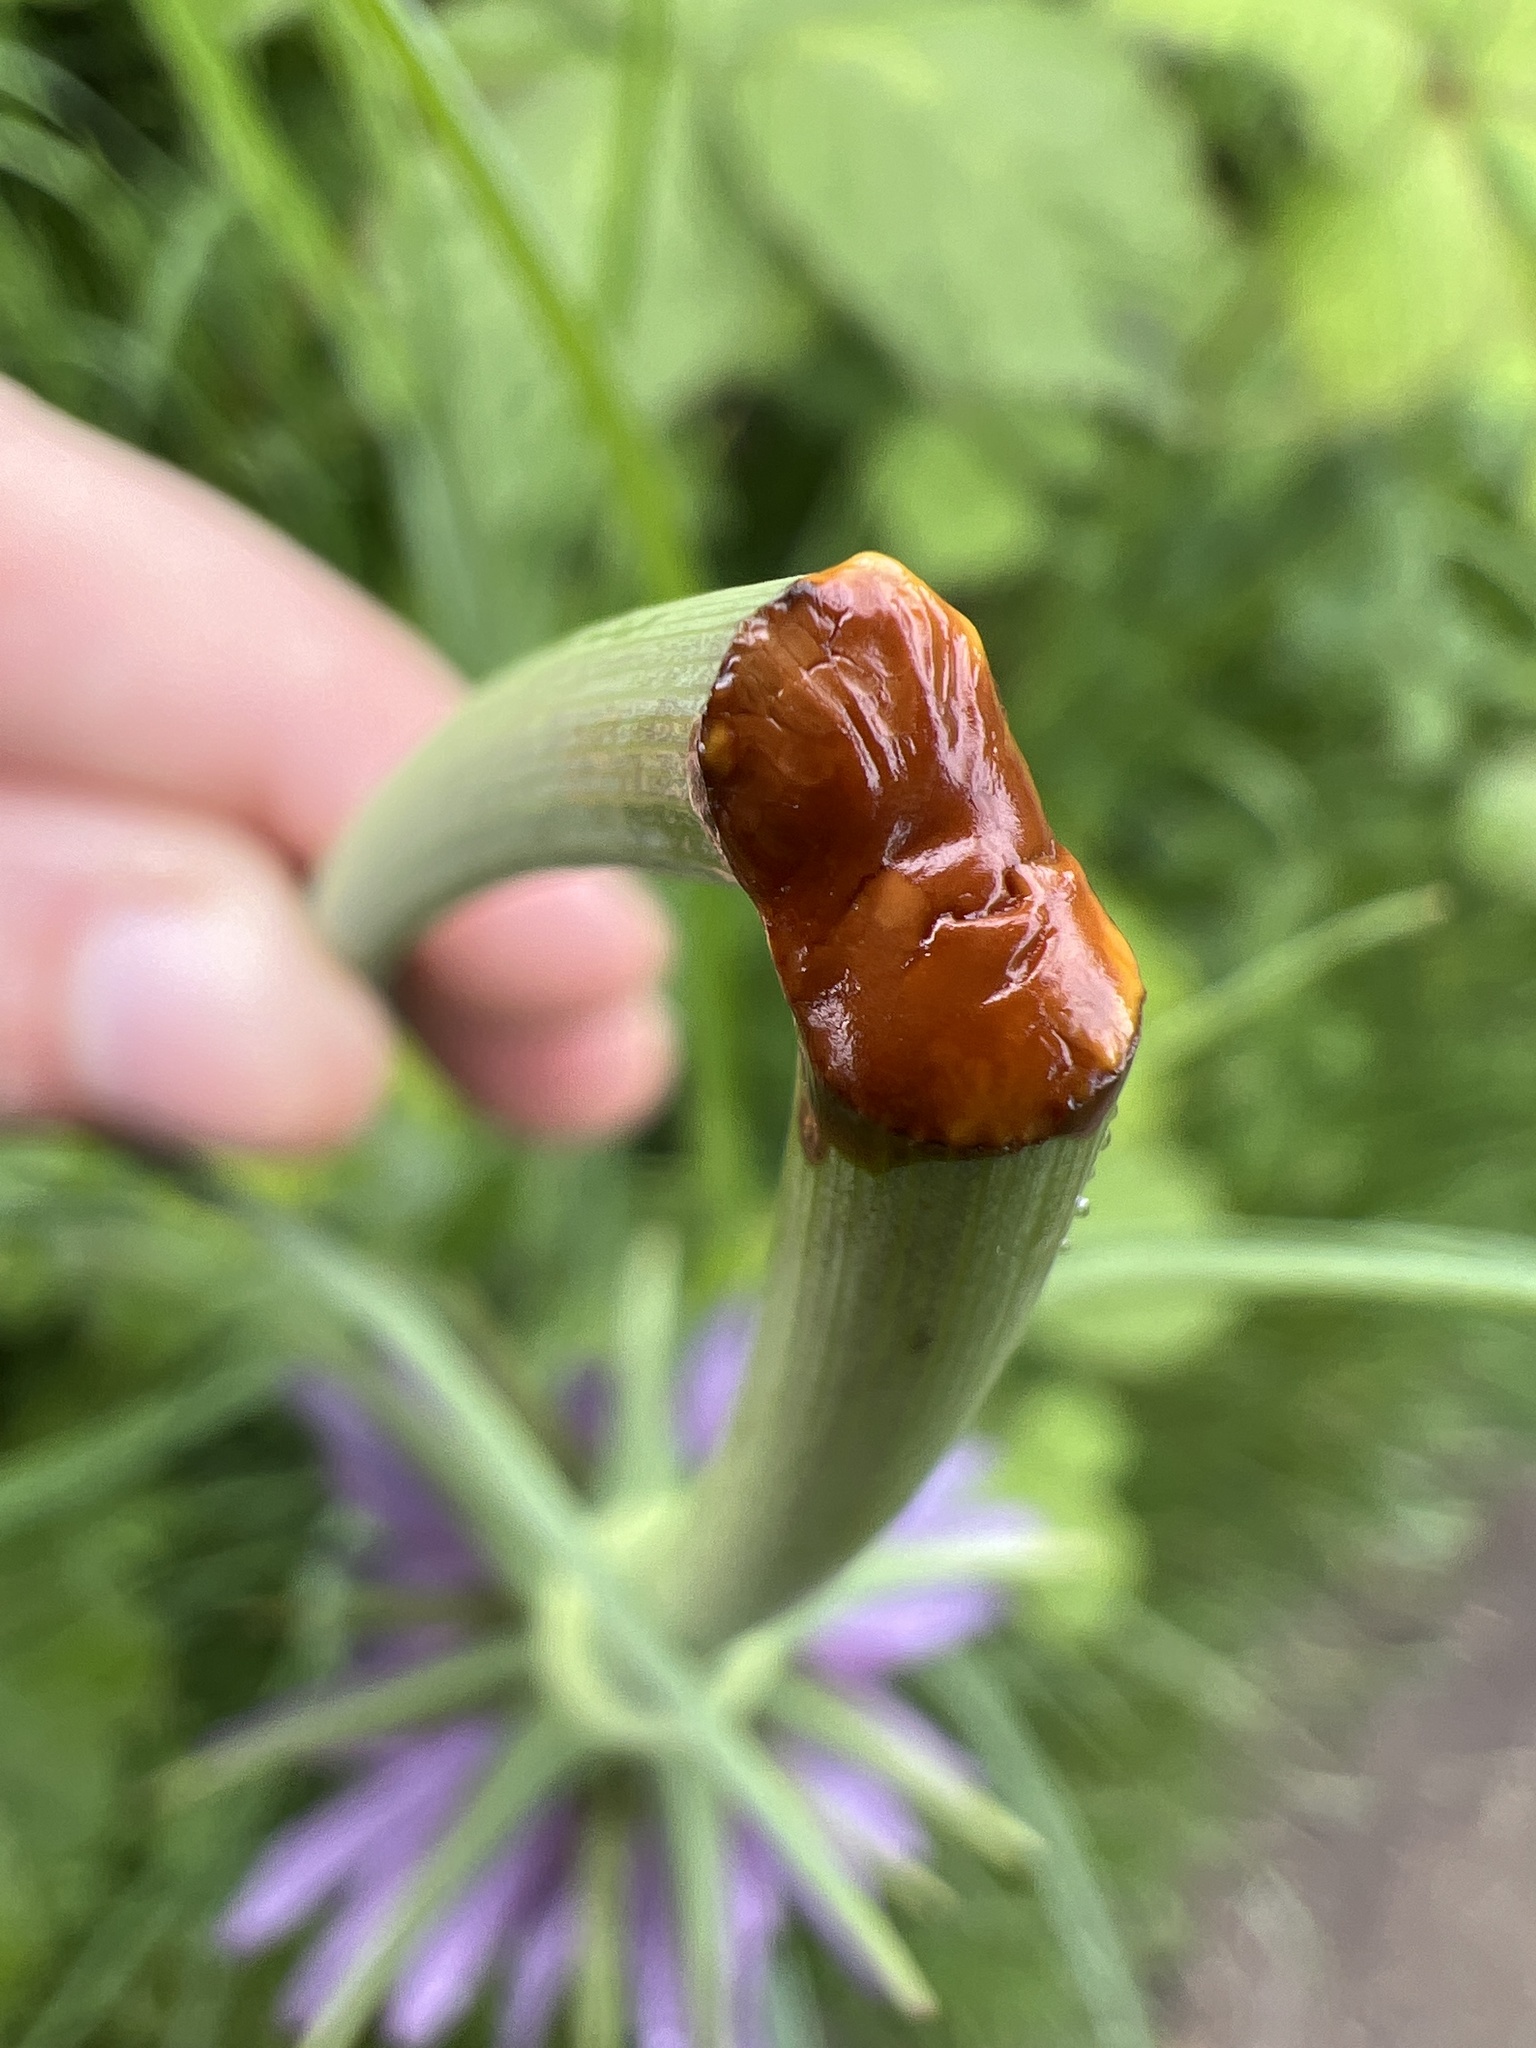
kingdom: Plantae
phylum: Tracheophyta
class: Magnoliopsida
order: Asterales
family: Asteraceae
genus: Tragopogon
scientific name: Tragopogon porrifolius
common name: Salsify
